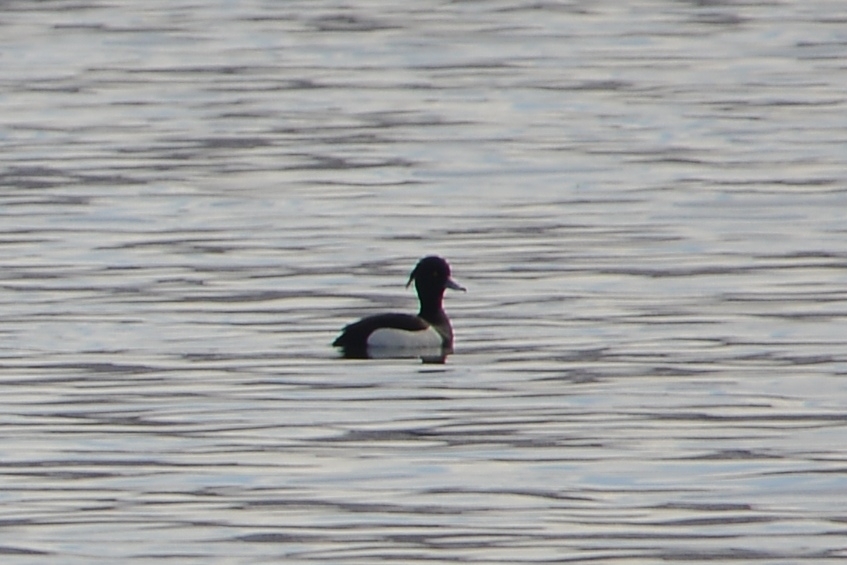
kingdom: Animalia
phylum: Chordata
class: Aves
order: Anseriformes
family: Anatidae
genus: Aythya
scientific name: Aythya fuligula
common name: Tufted duck
